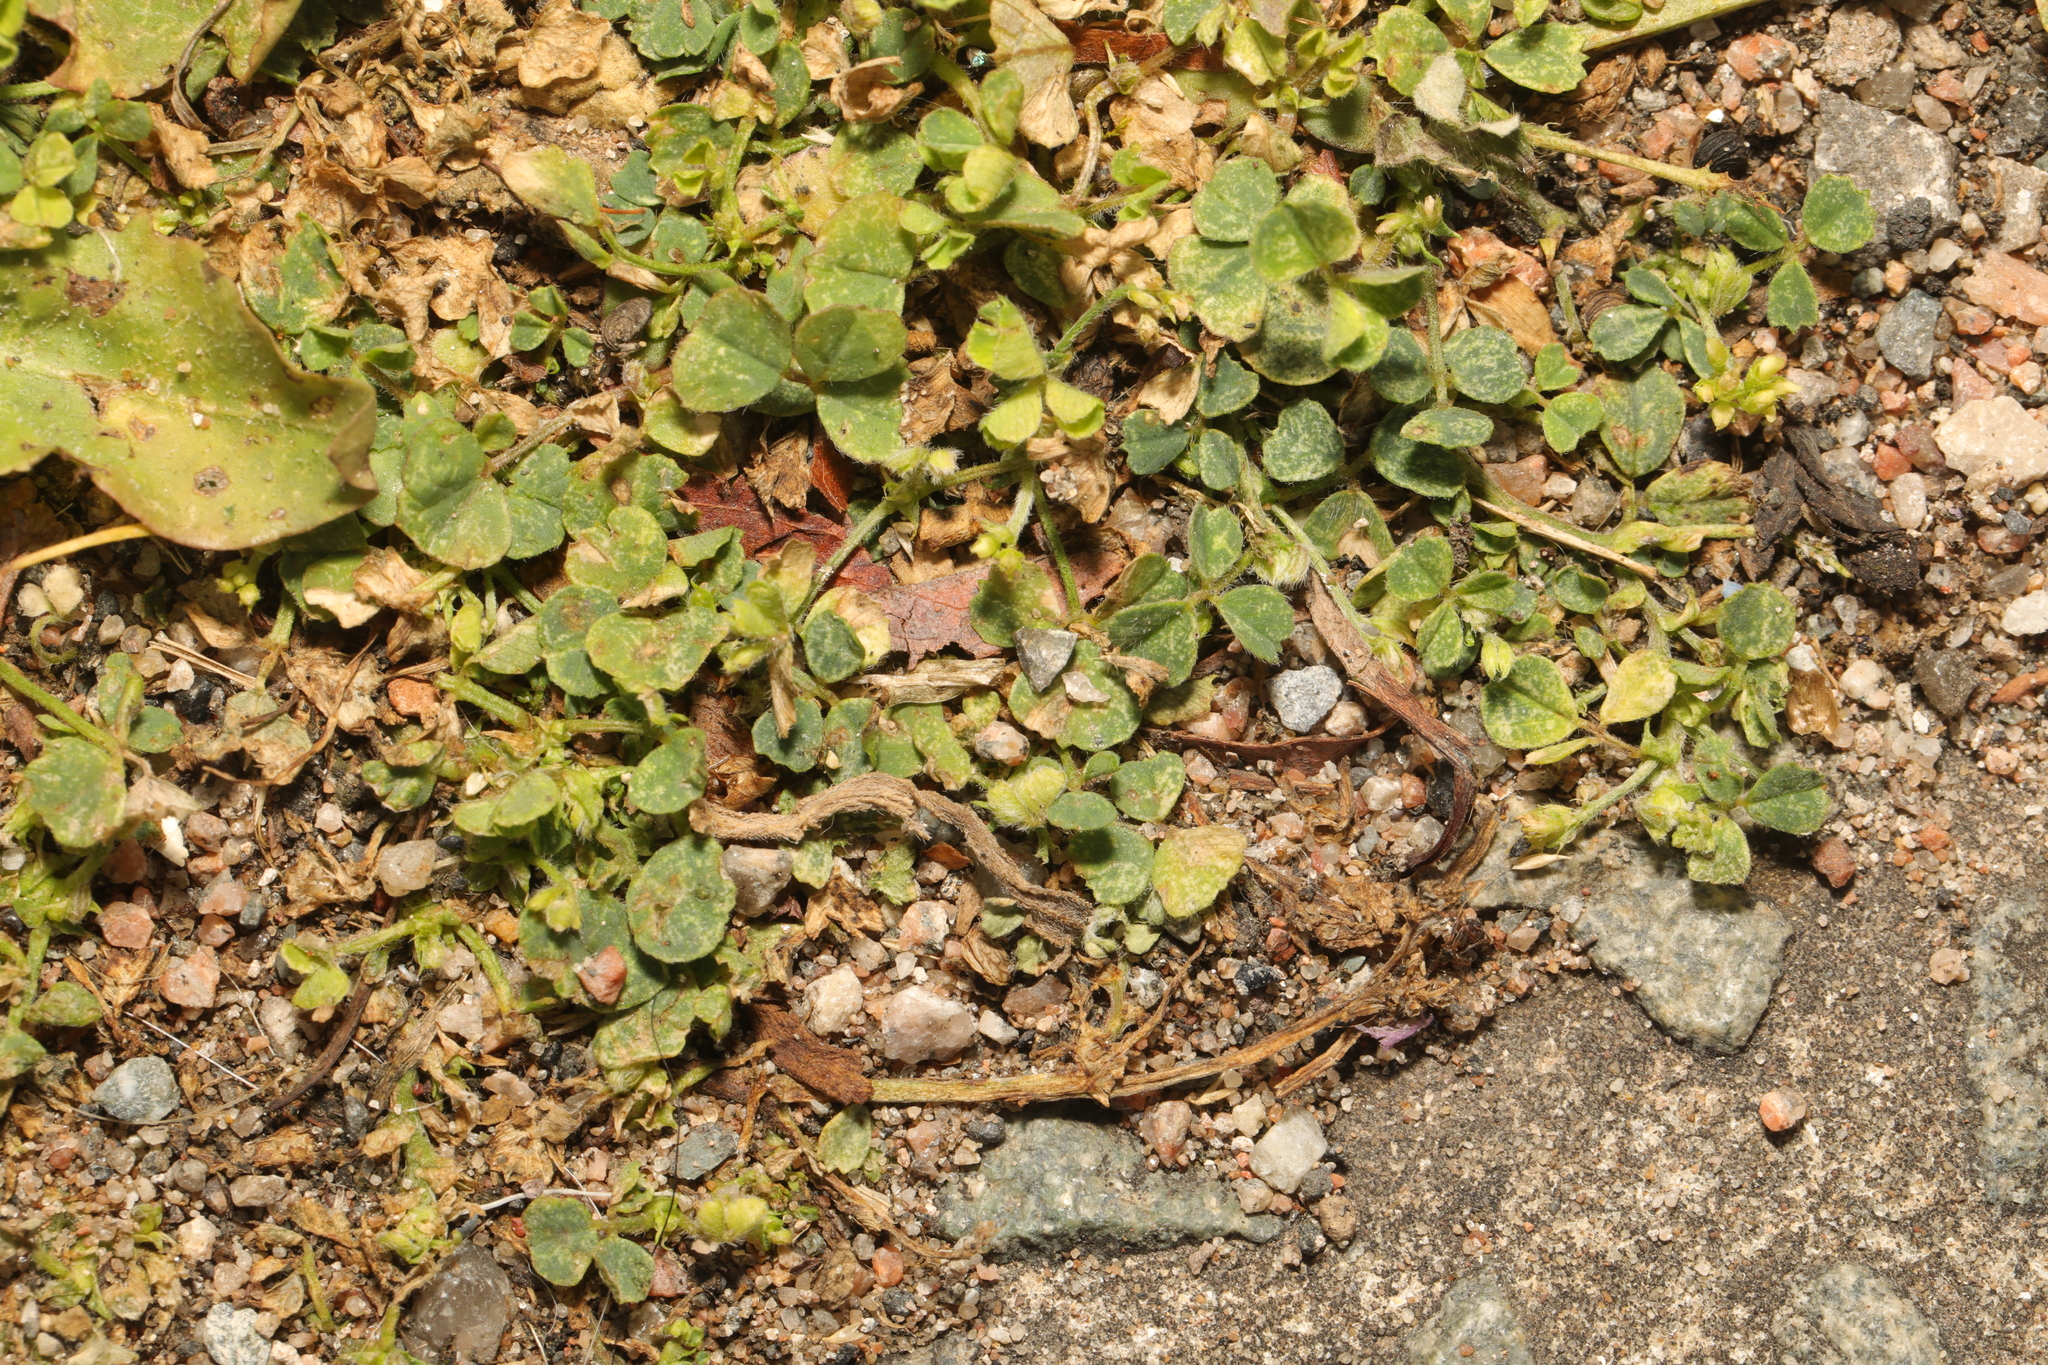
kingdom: Plantae
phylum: Tracheophyta
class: Magnoliopsida
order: Fabales
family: Fabaceae
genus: Medicago
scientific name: Medicago lupulina
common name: Black medick
